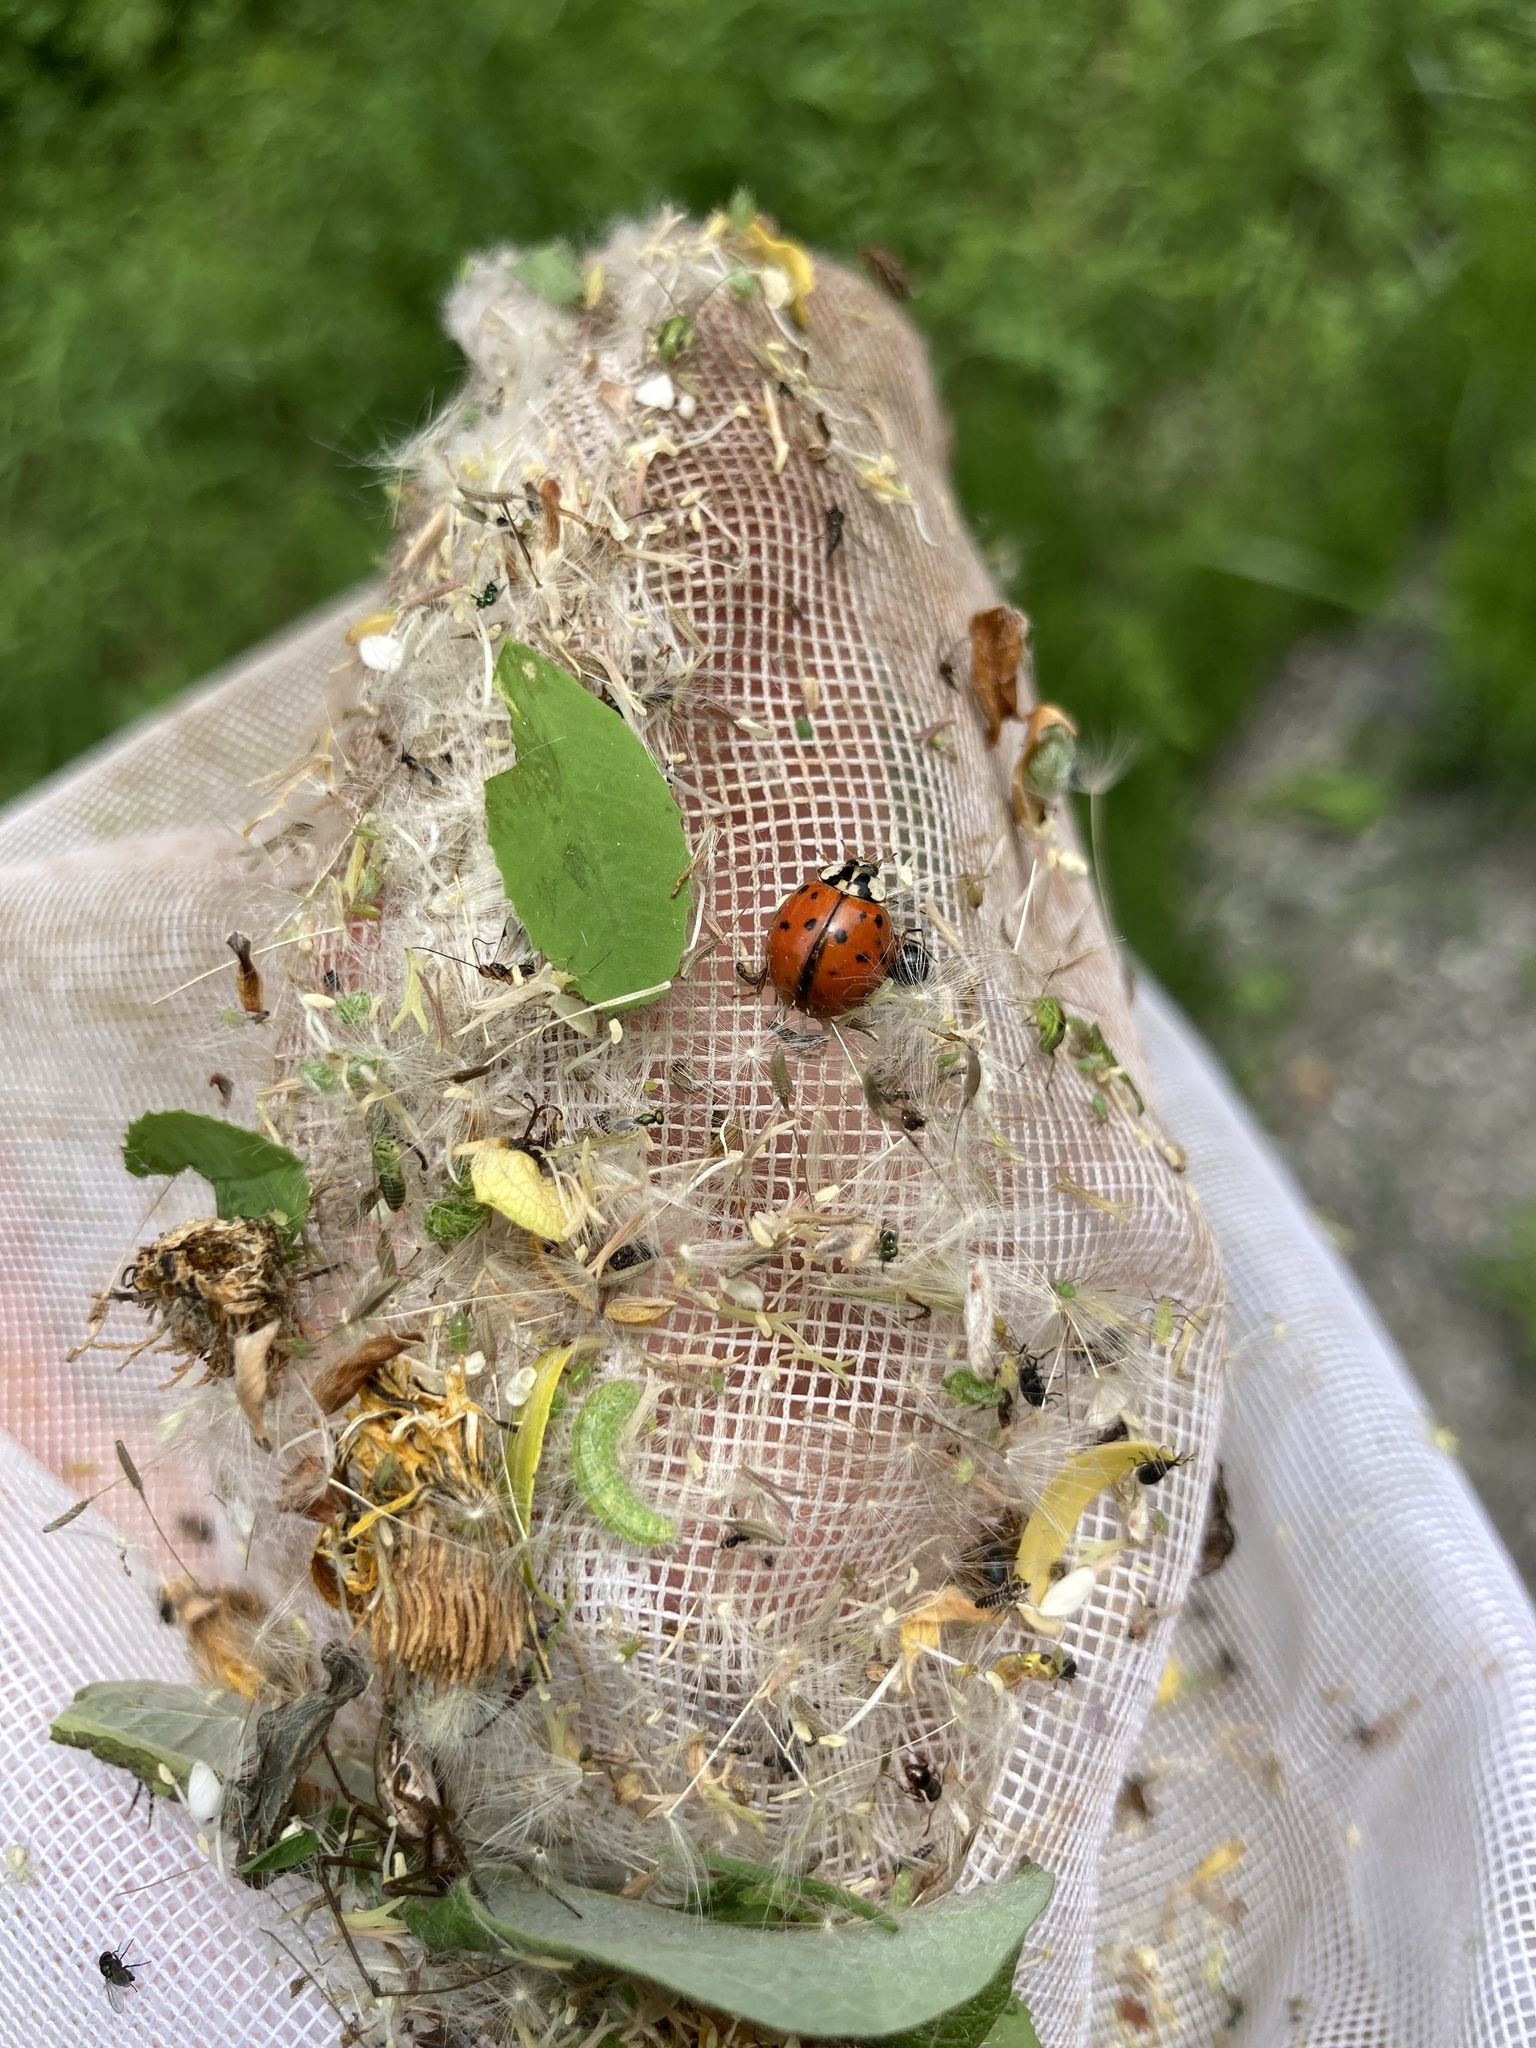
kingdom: Animalia
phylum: Arthropoda
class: Insecta
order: Coleoptera
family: Coccinellidae
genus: Harmonia
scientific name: Harmonia axyridis
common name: Harlequin ladybird
